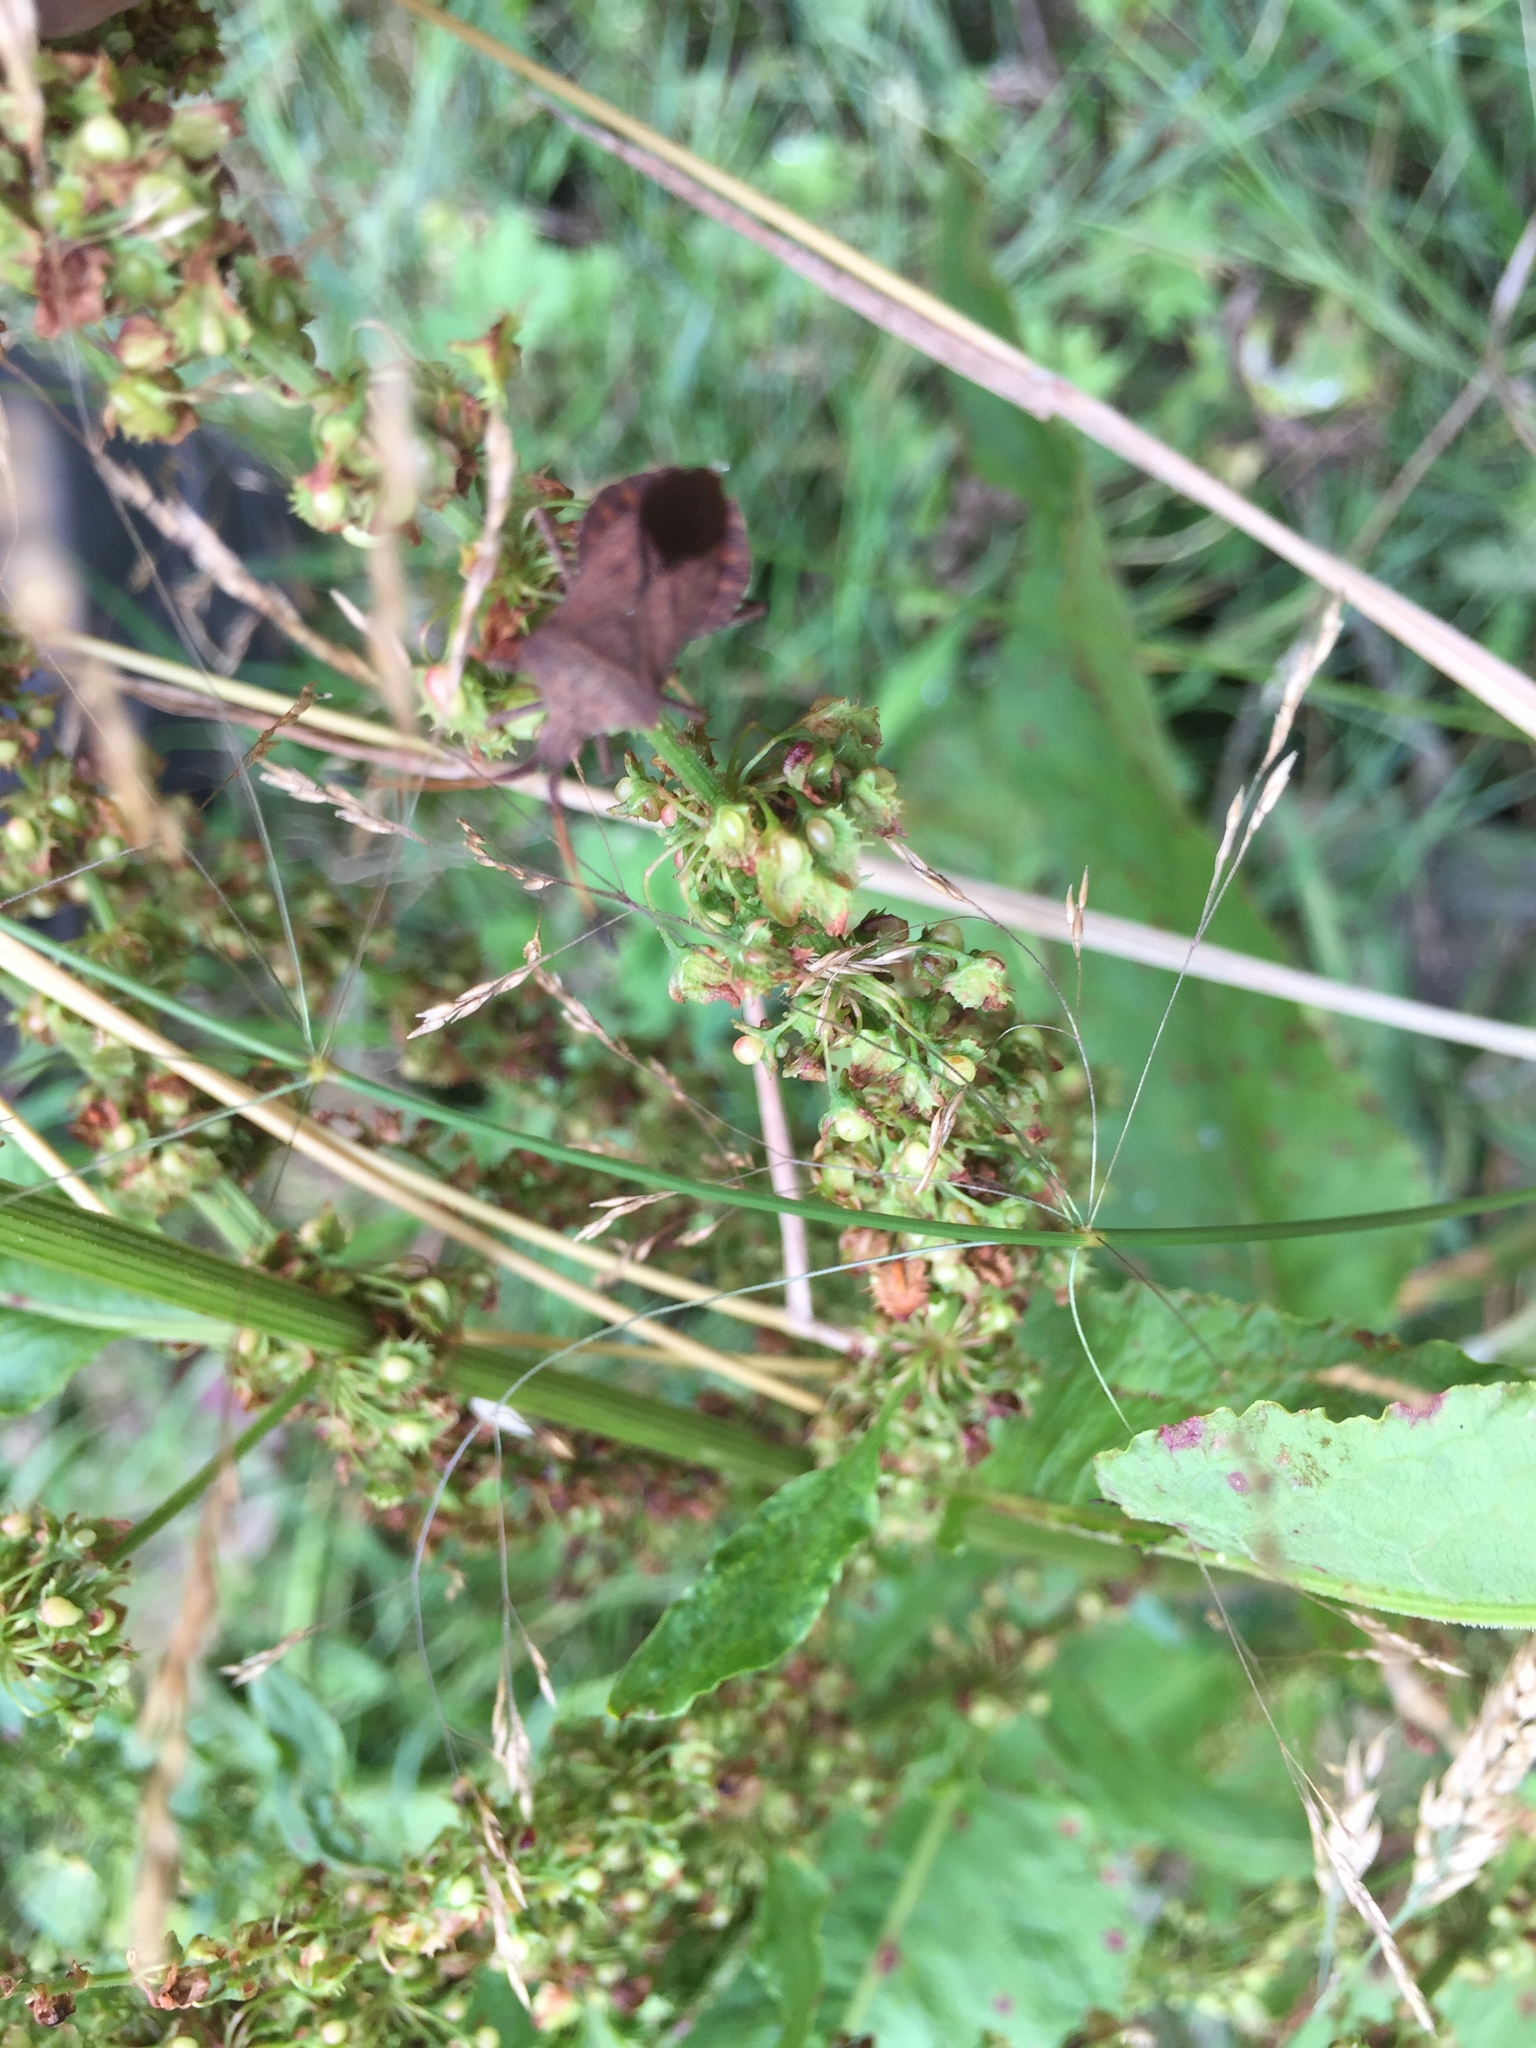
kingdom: Animalia
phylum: Arthropoda
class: Insecta
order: Hemiptera
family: Coreidae
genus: Coreus
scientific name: Coreus marginatus
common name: Dock bug
